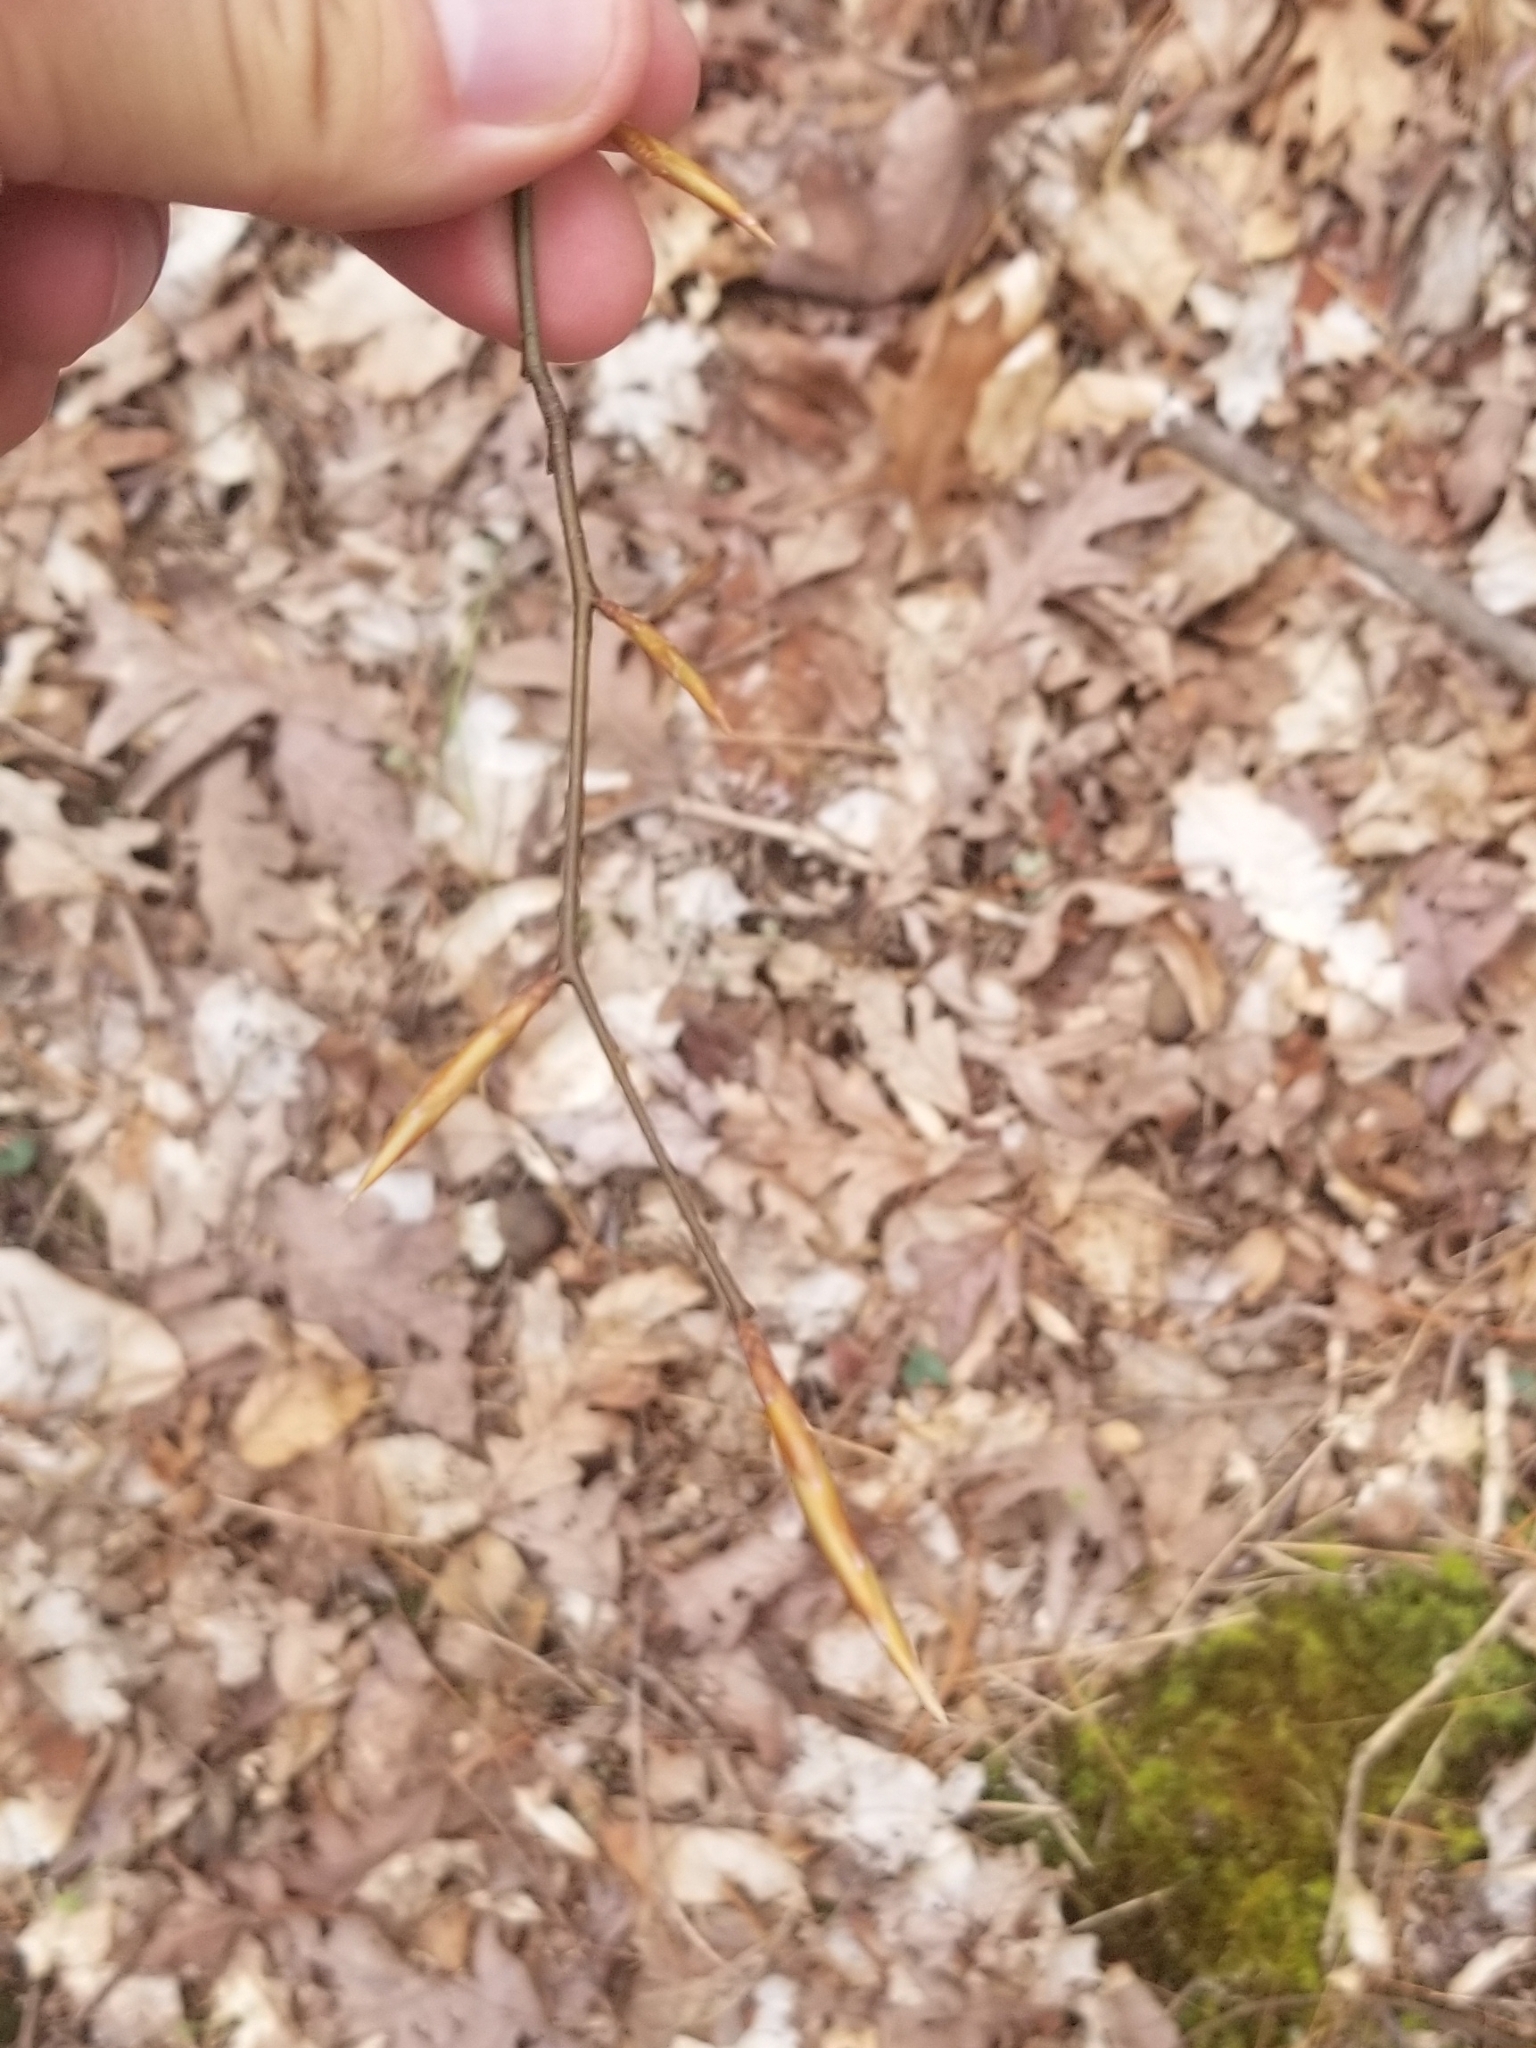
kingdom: Plantae
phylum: Tracheophyta
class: Magnoliopsida
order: Fagales
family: Fagaceae
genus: Fagus
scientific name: Fagus grandifolia
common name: American beech
